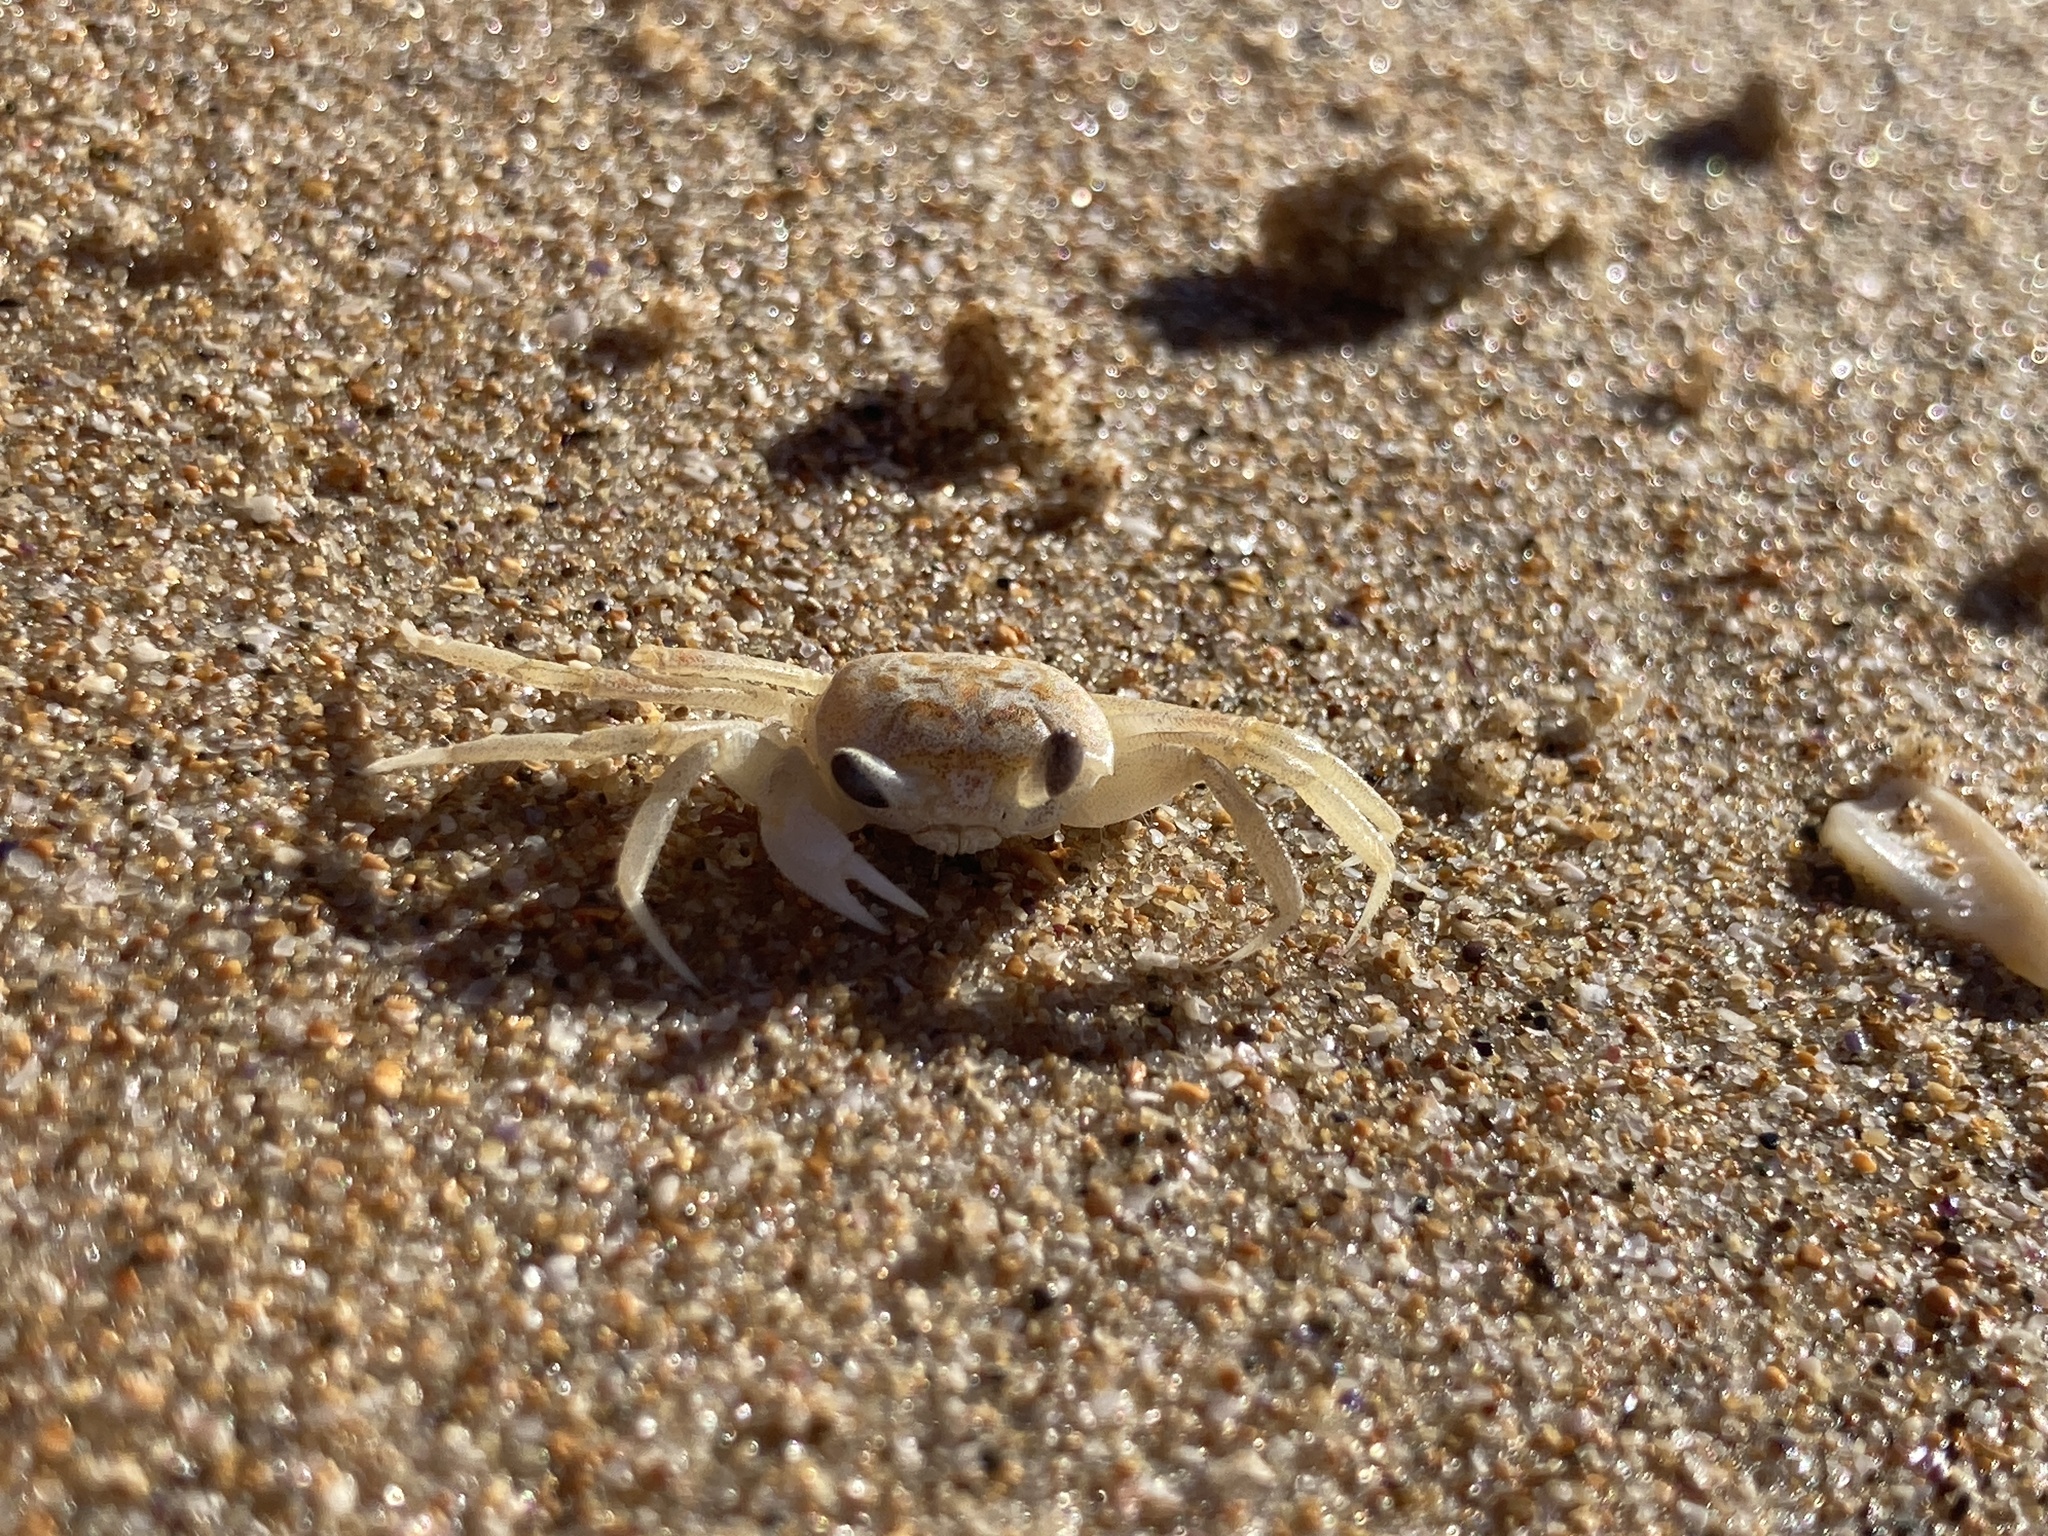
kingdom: Animalia
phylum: Arthropoda
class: Malacostraca
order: Decapoda
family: Ocypodidae
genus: Ocypode
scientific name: Ocypode cordimana
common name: Smooth-eyed ghost crab
